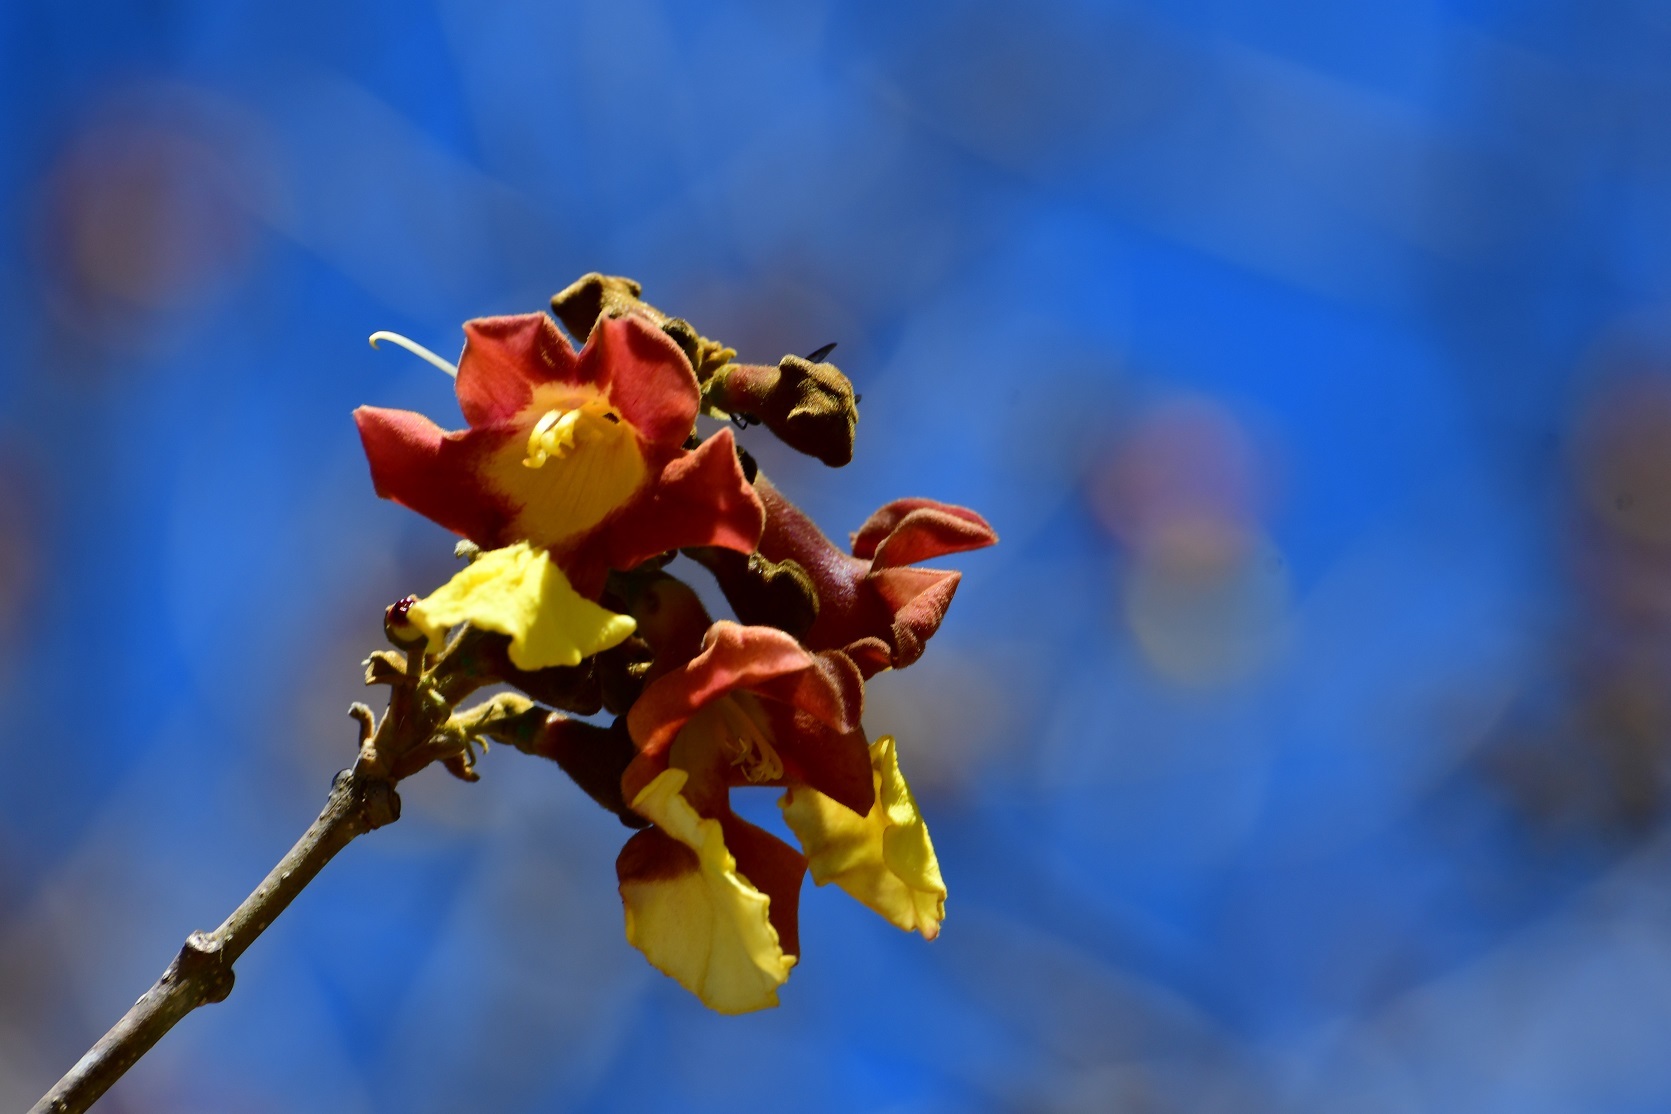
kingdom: Plantae
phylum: Tracheophyta
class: Magnoliopsida
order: Lamiales
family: Lamiaceae
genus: Gmelina
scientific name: Gmelina arborea
